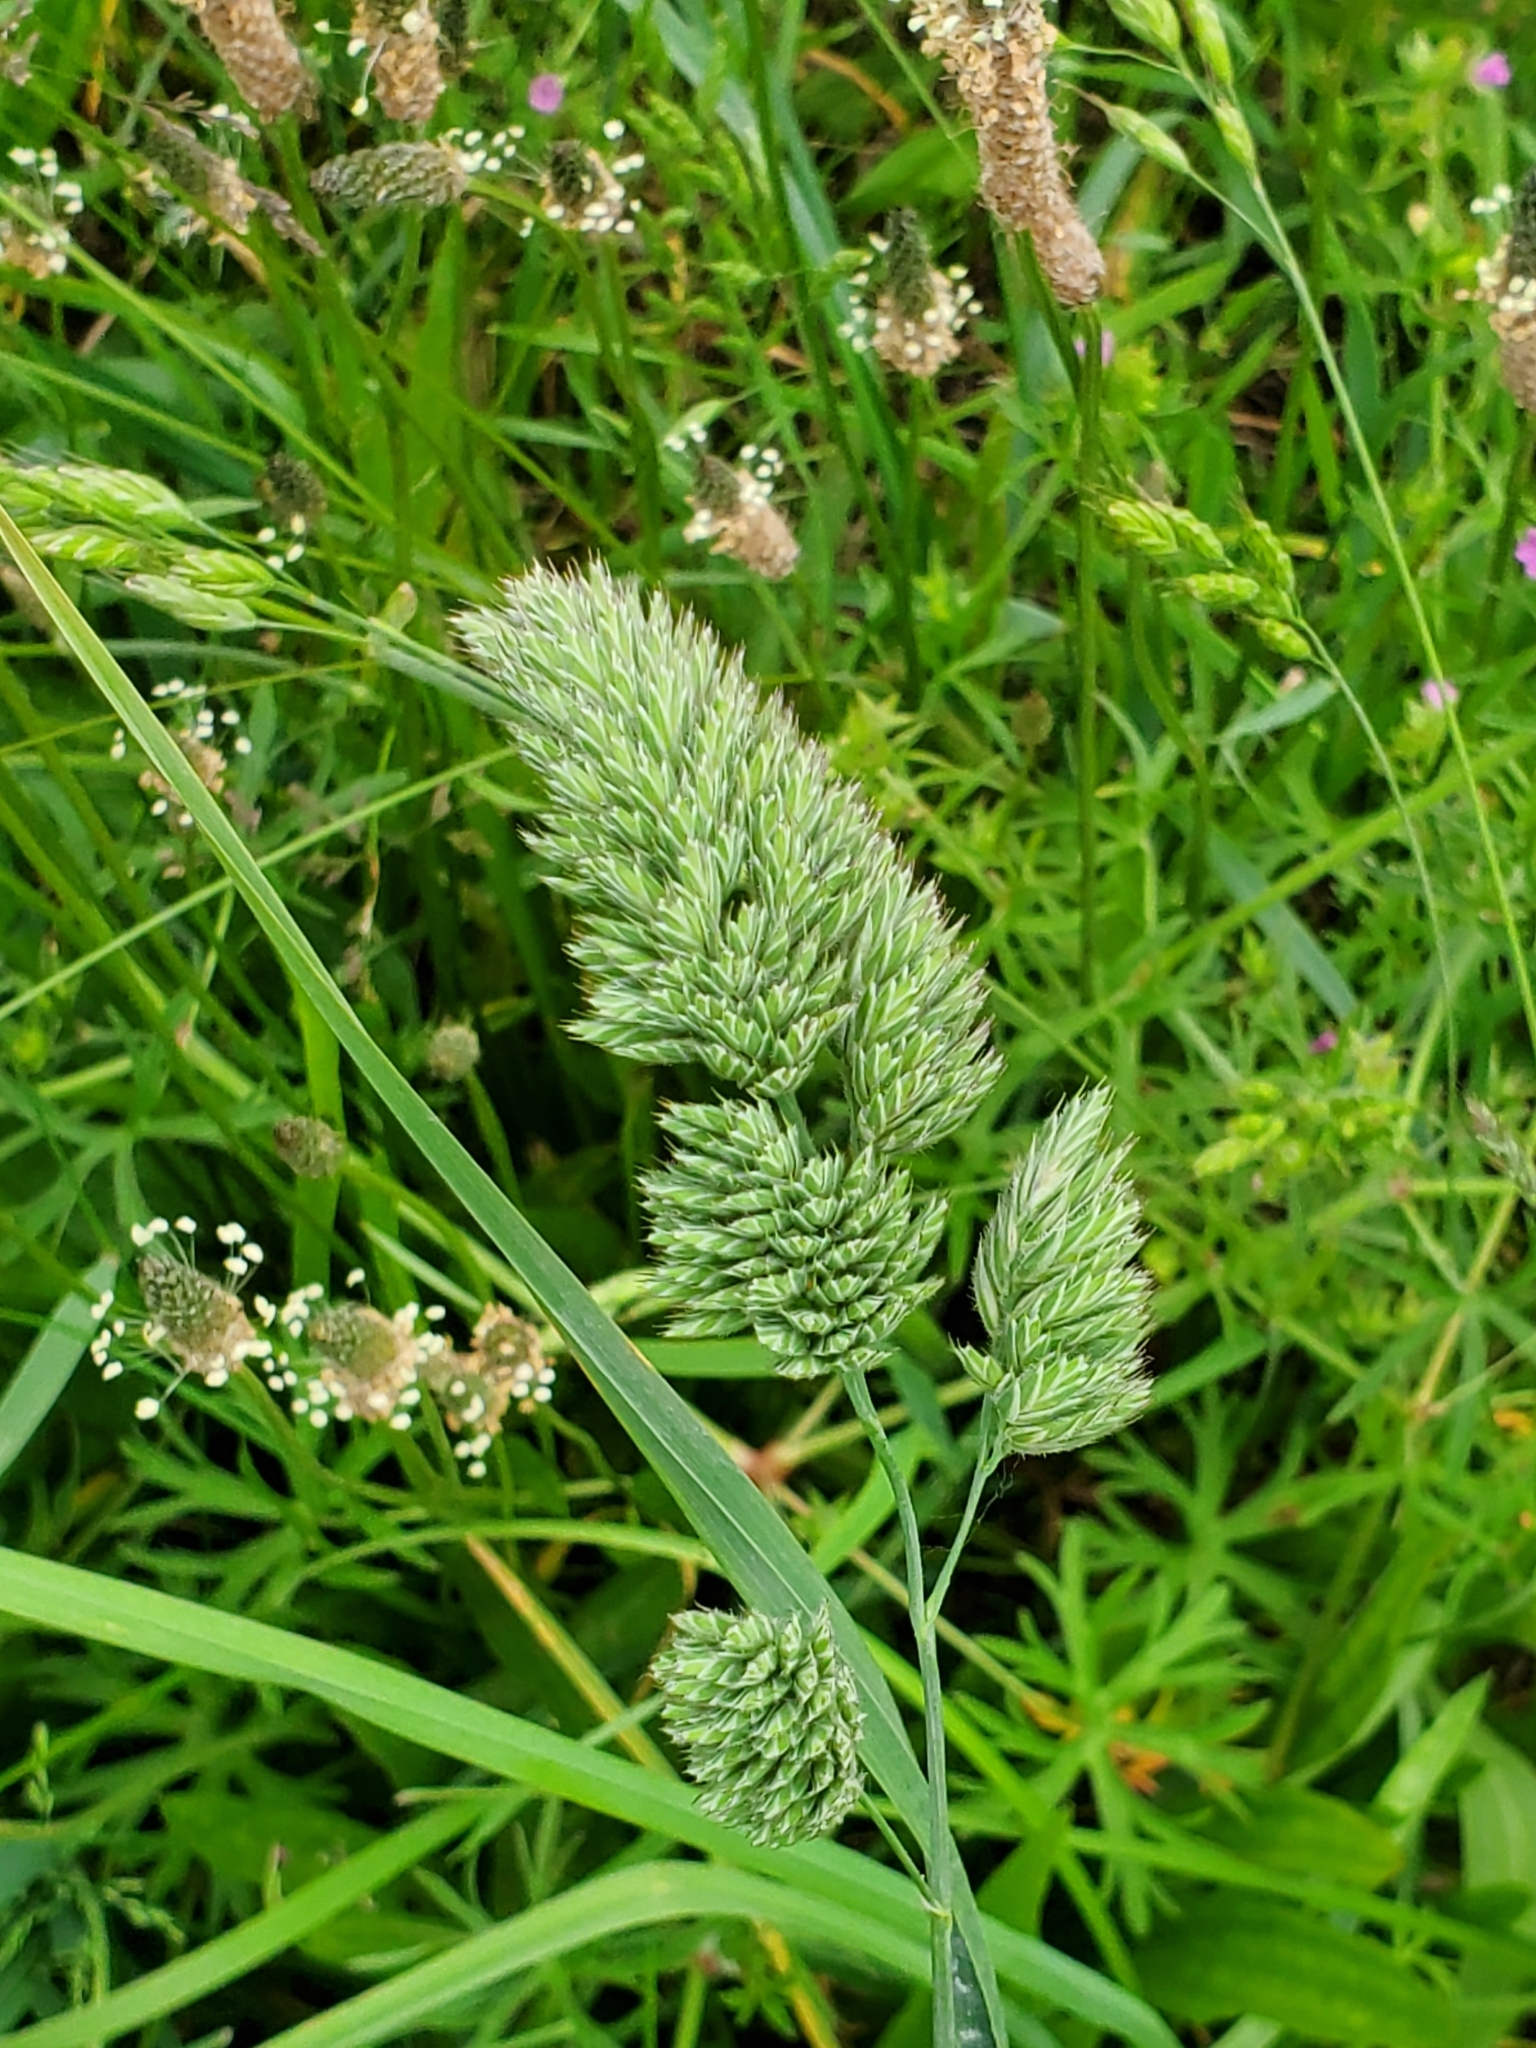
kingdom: Plantae
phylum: Tracheophyta
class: Liliopsida
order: Poales
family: Poaceae
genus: Dactylis
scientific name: Dactylis glomerata
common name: Orchardgrass
